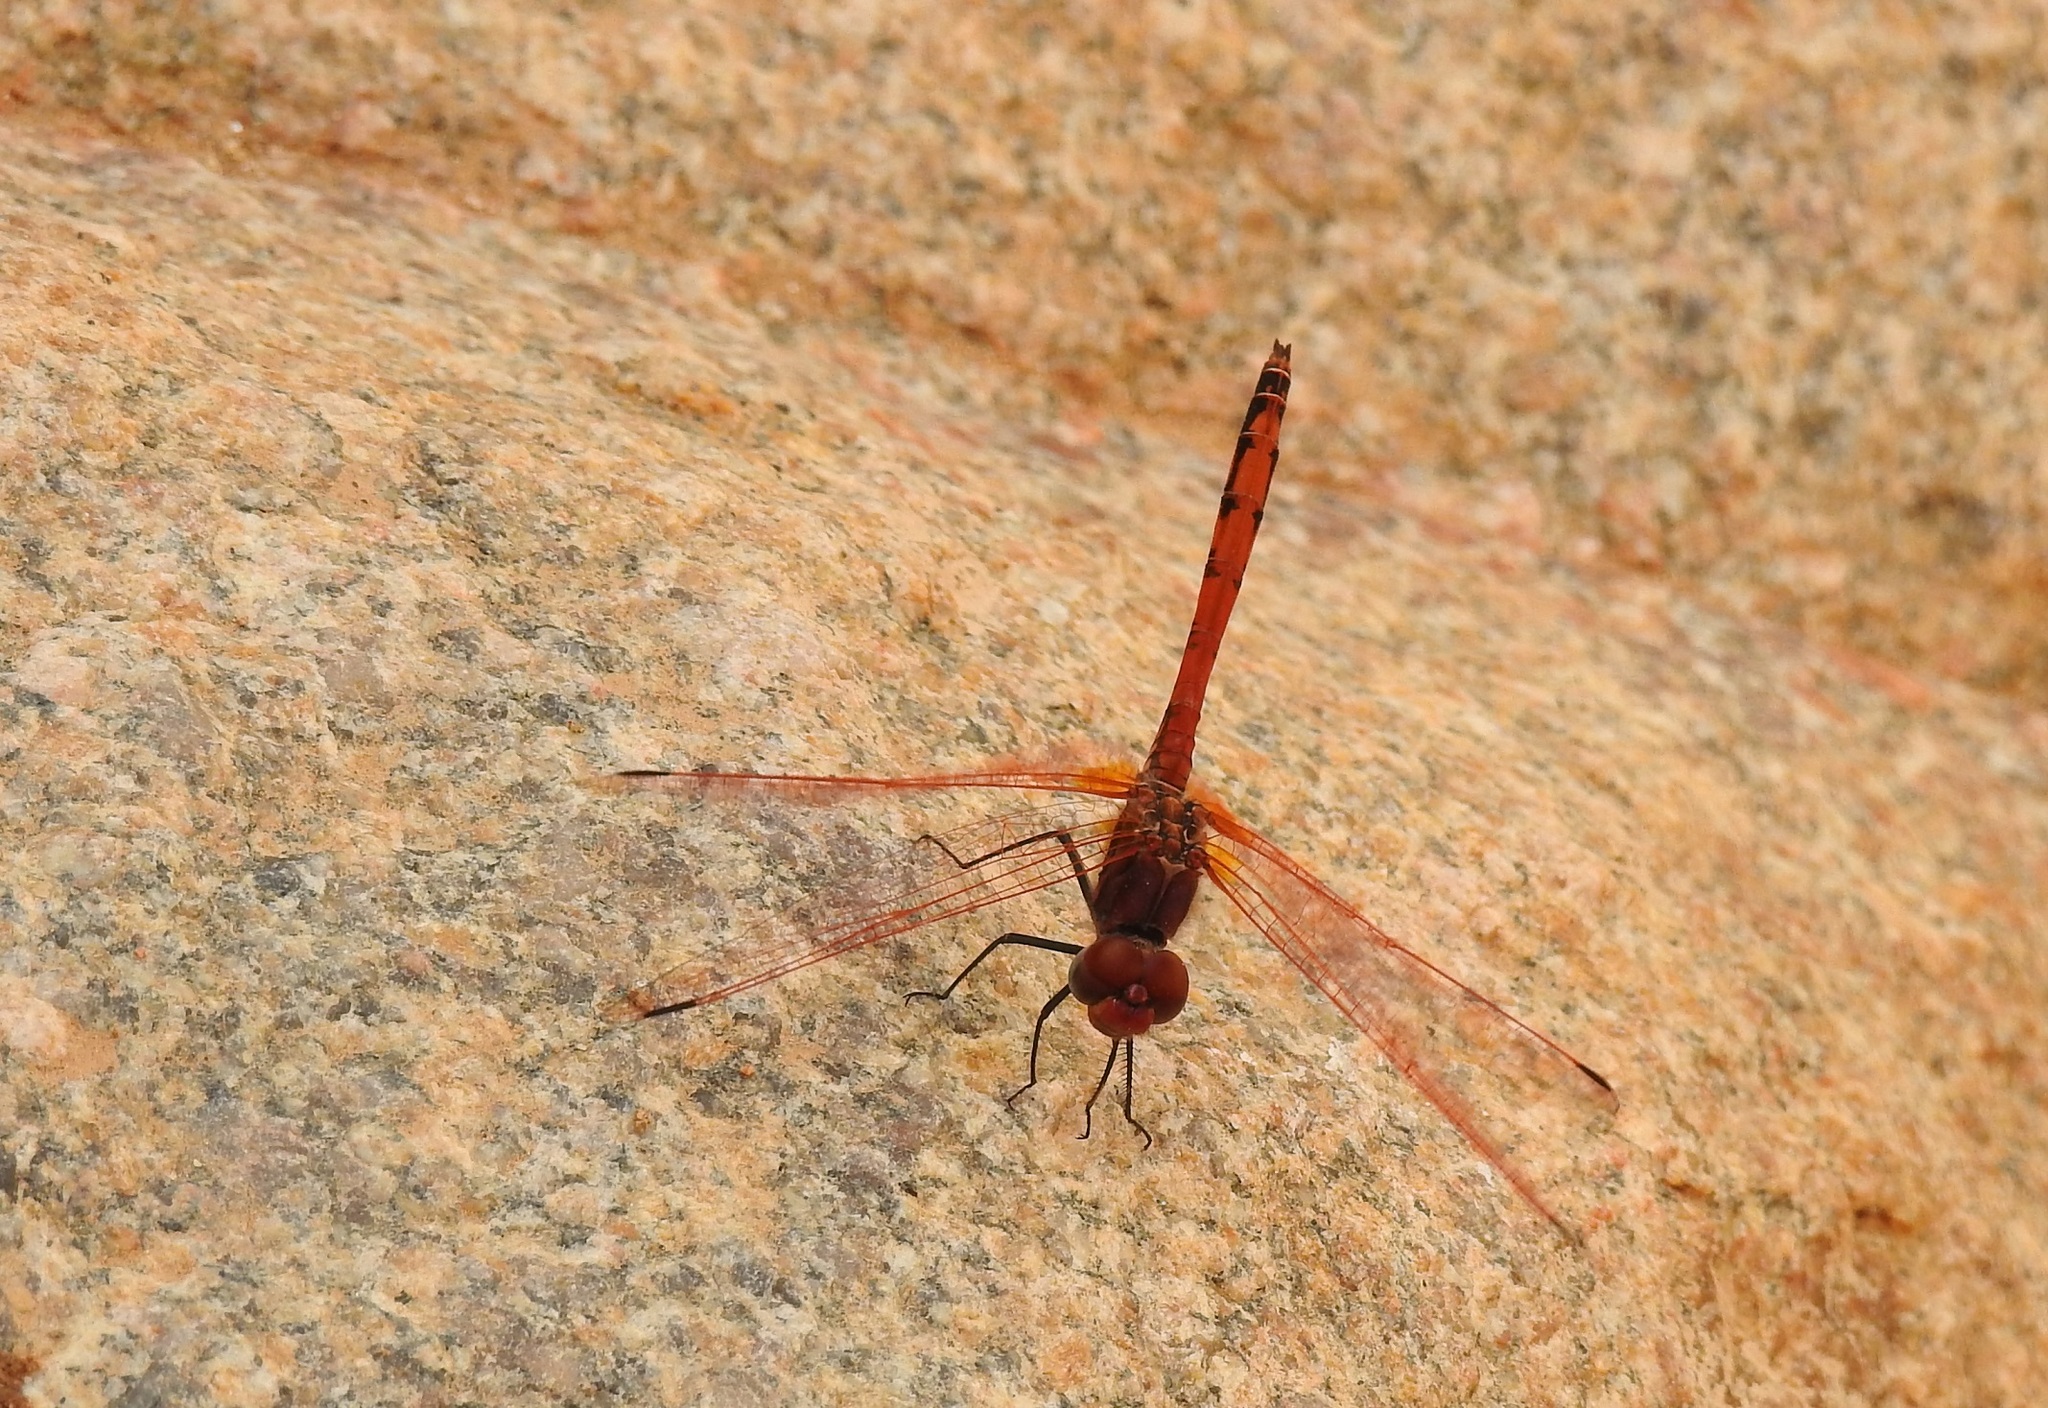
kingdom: Animalia
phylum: Arthropoda
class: Insecta
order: Odonata
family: Libellulidae
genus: Trithemis
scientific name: Trithemis arteriosa
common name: Red-veined dropwing
